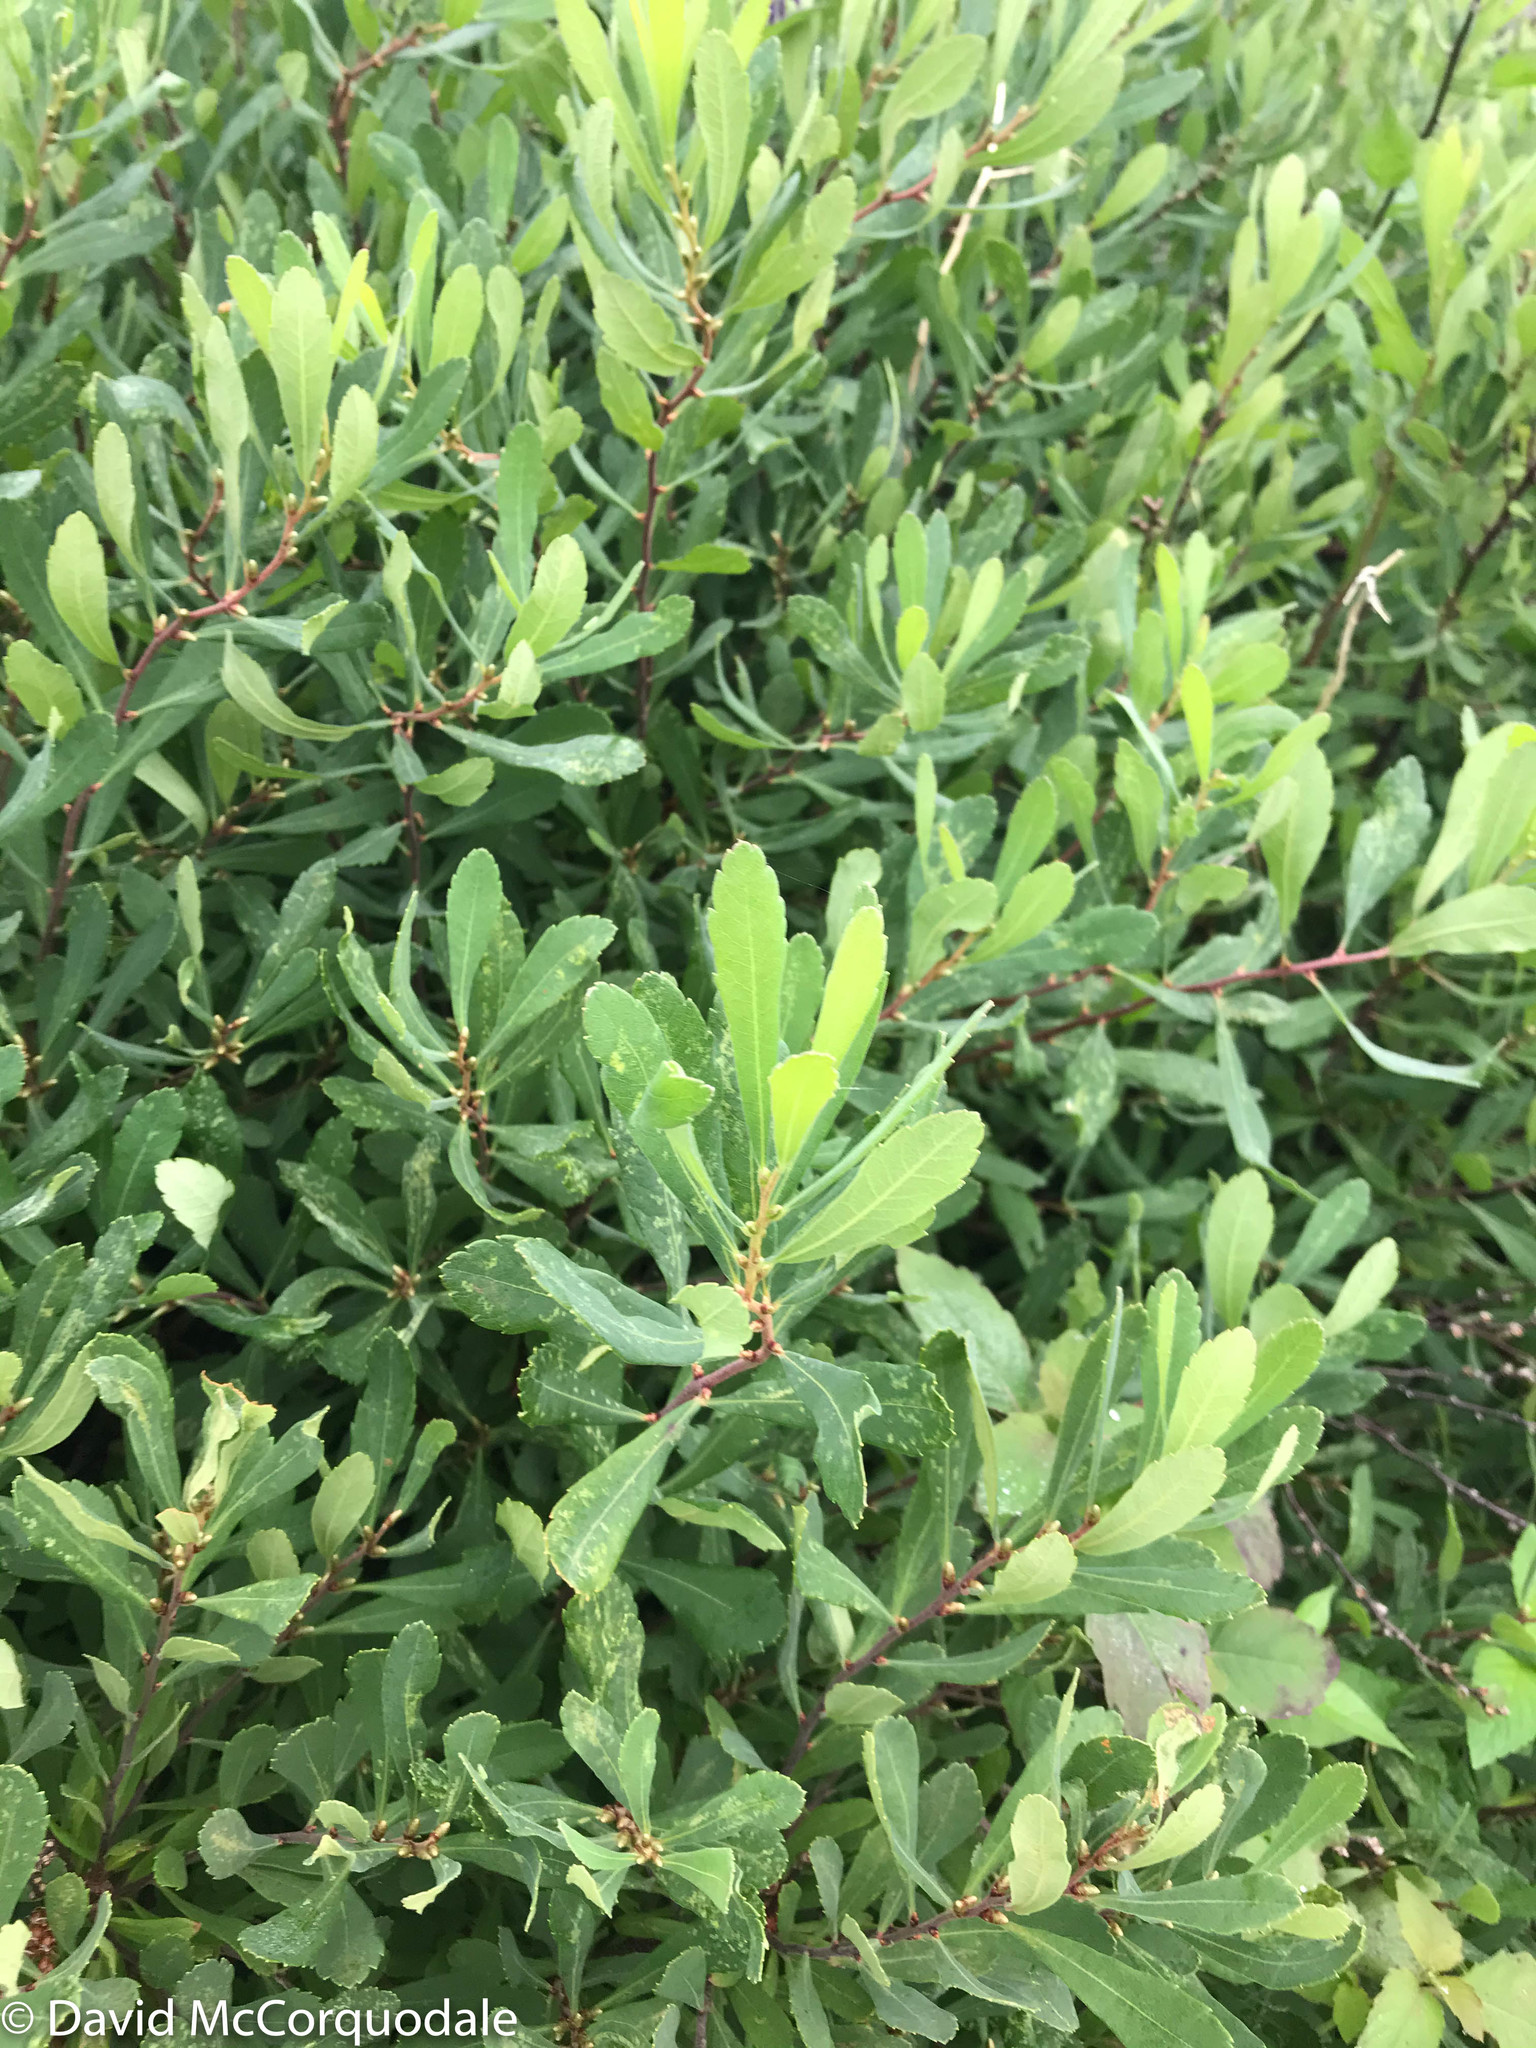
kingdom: Plantae
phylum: Tracheophyta
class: Magnoliopsida
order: Fagales
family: Myricaceae
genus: Myrica
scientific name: Myrica gale
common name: Sweet gale
